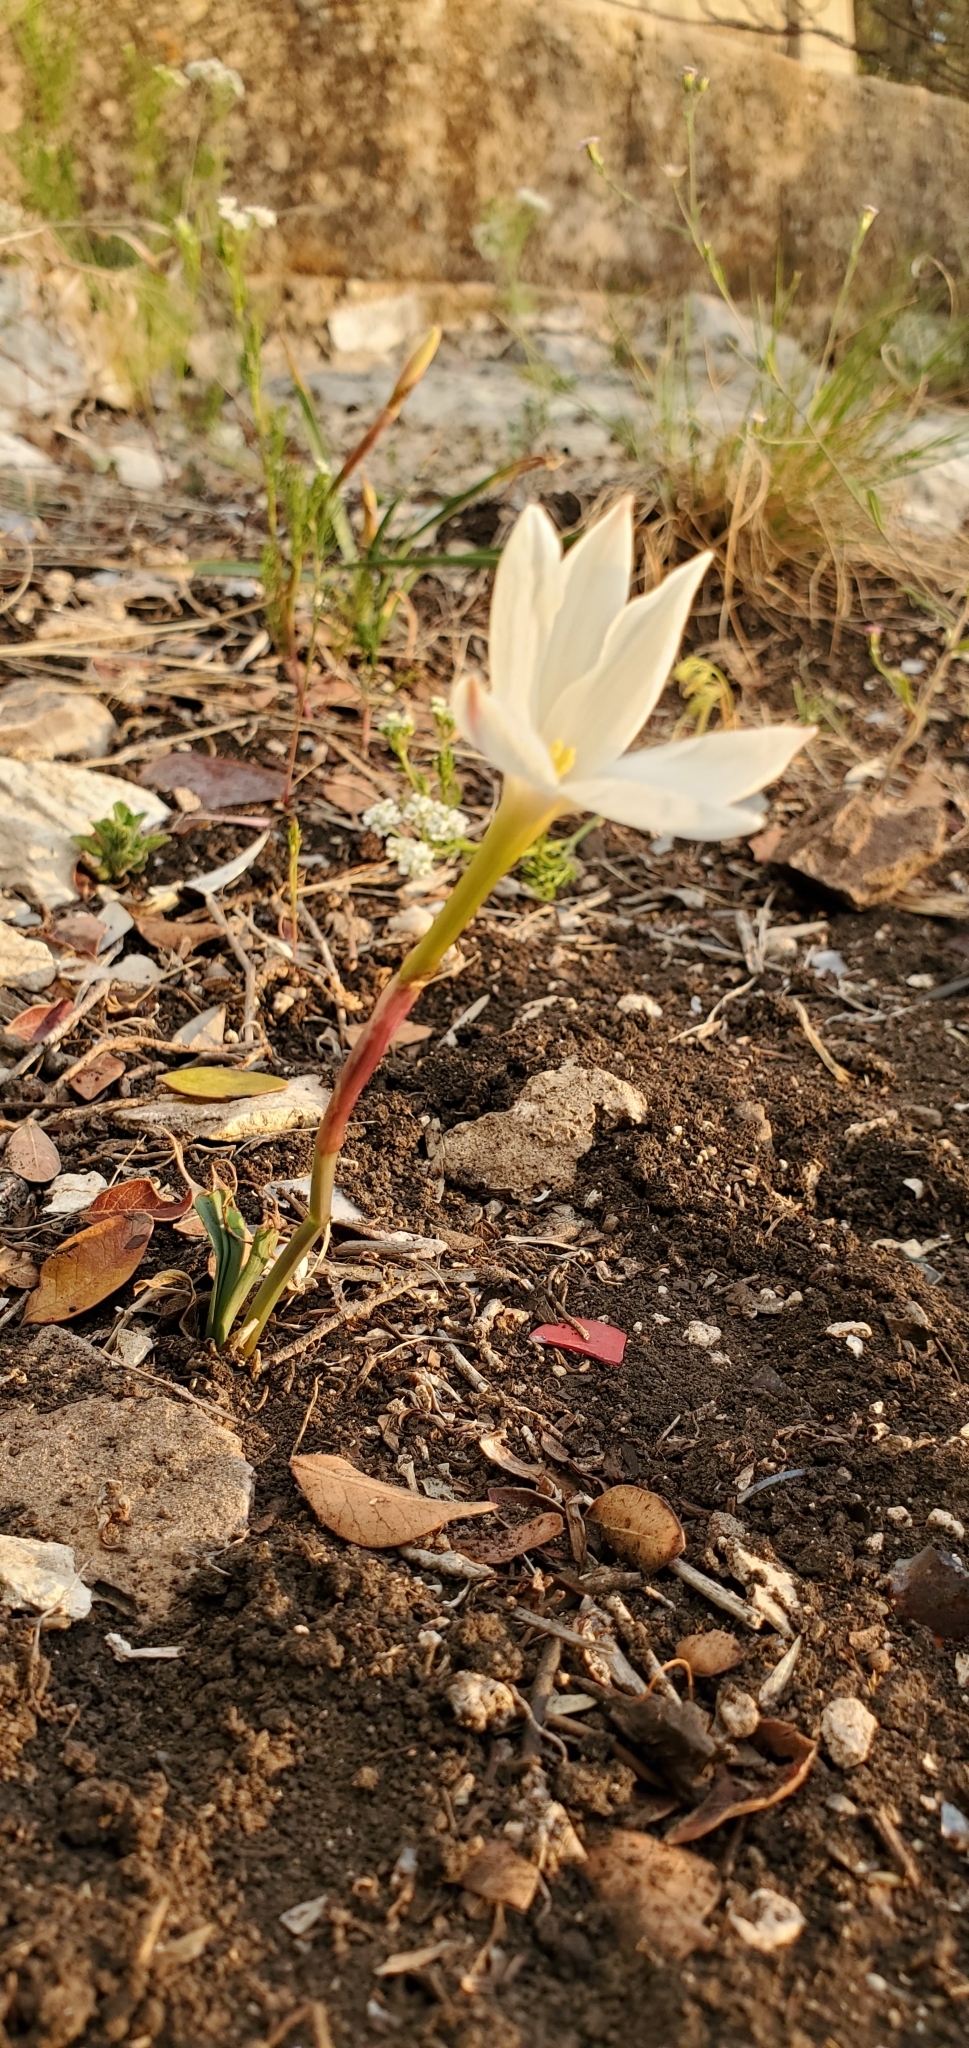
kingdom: Plantae
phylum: Tracheophyta
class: Liliopsida
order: Asparagales
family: Amaryllidaceae
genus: Zephyranthes
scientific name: Zephyranthes drummondii
